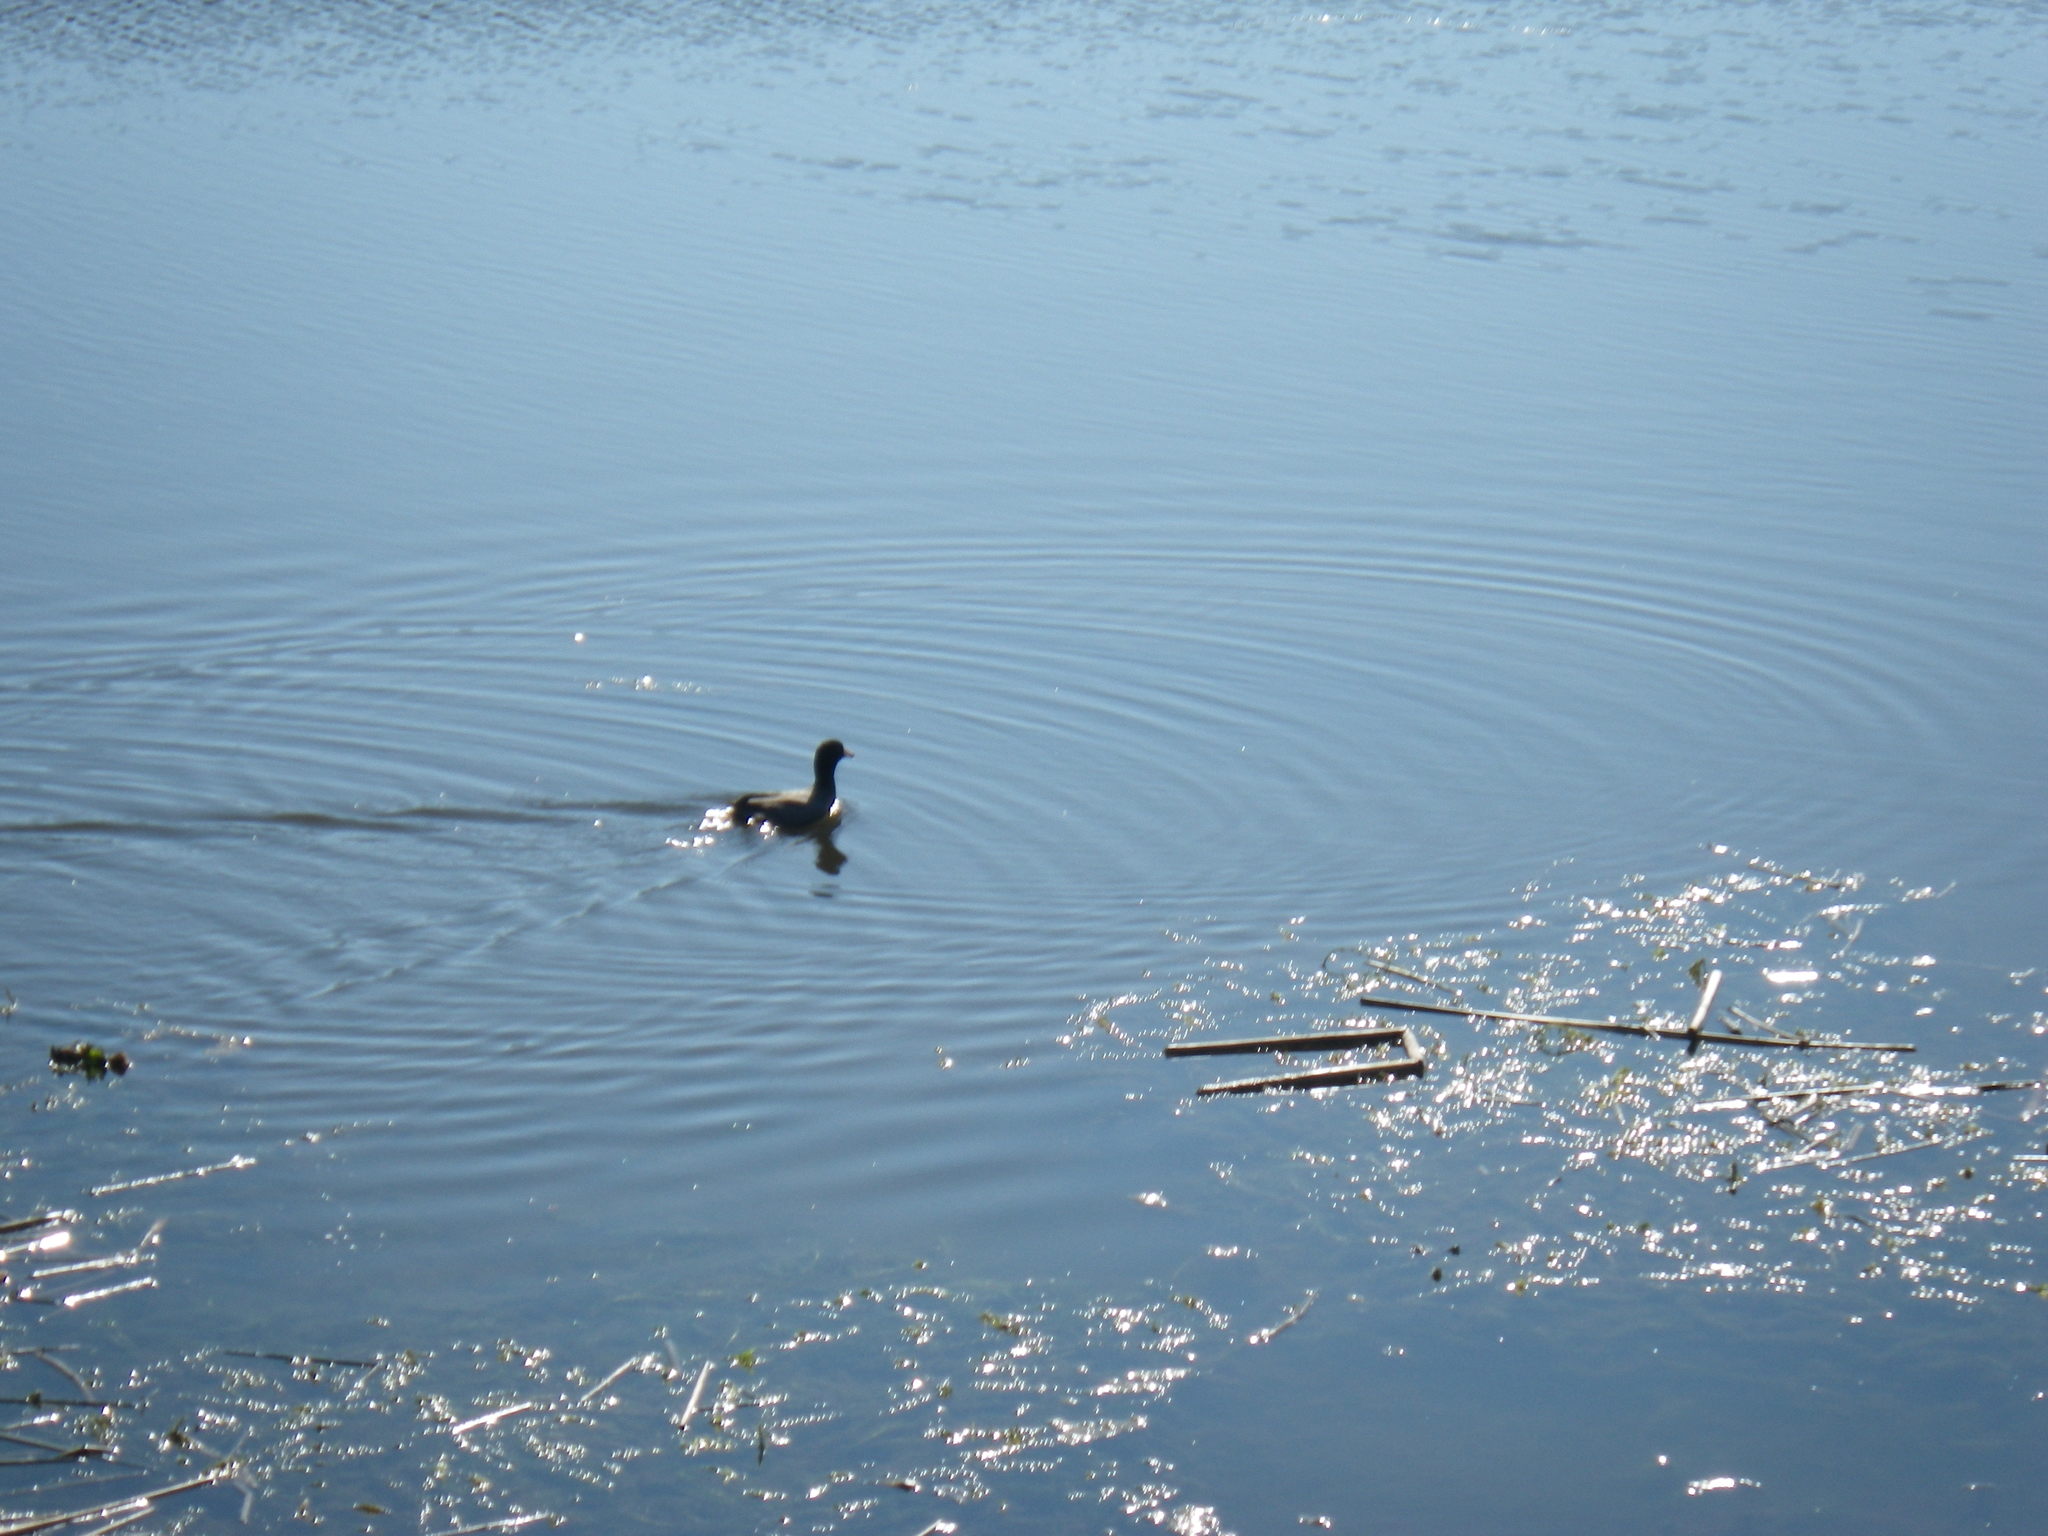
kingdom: Animalia
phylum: Chordata
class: Aves
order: Gruiformes
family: Rallidae
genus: Fulica
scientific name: Fulica americana
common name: American coot
